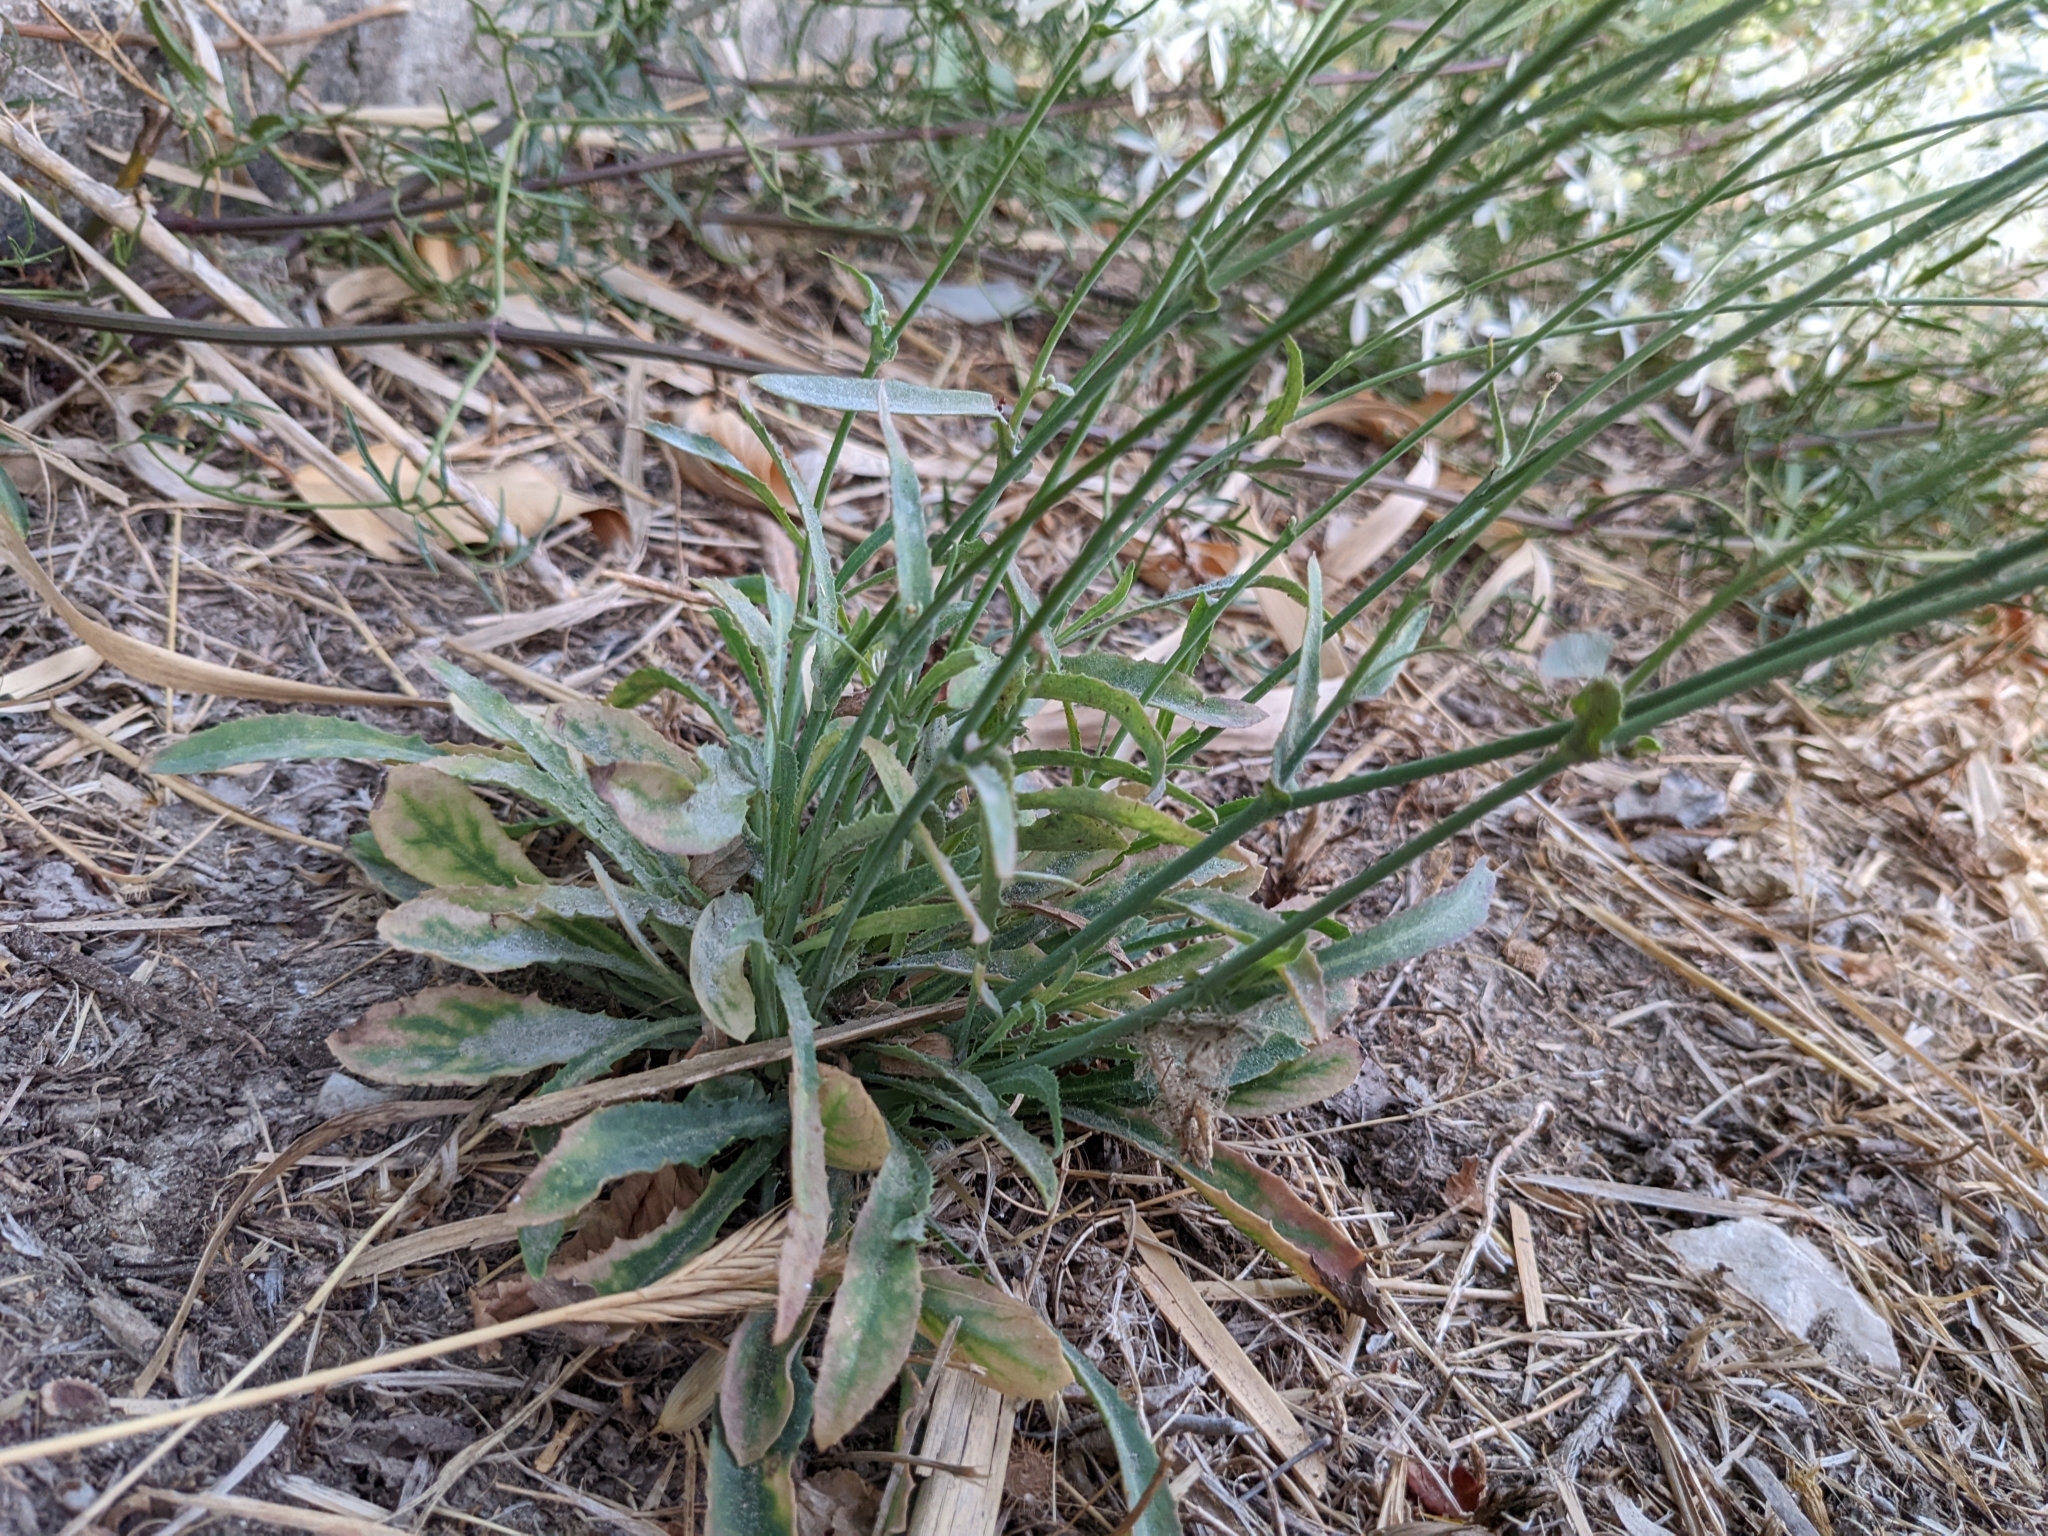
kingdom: Plantae
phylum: Tracheophyta
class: Magnoliopsida
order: Asterales
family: Asteraceae
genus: Reichardia
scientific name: Reichardia picroides
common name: Common brighteyes
